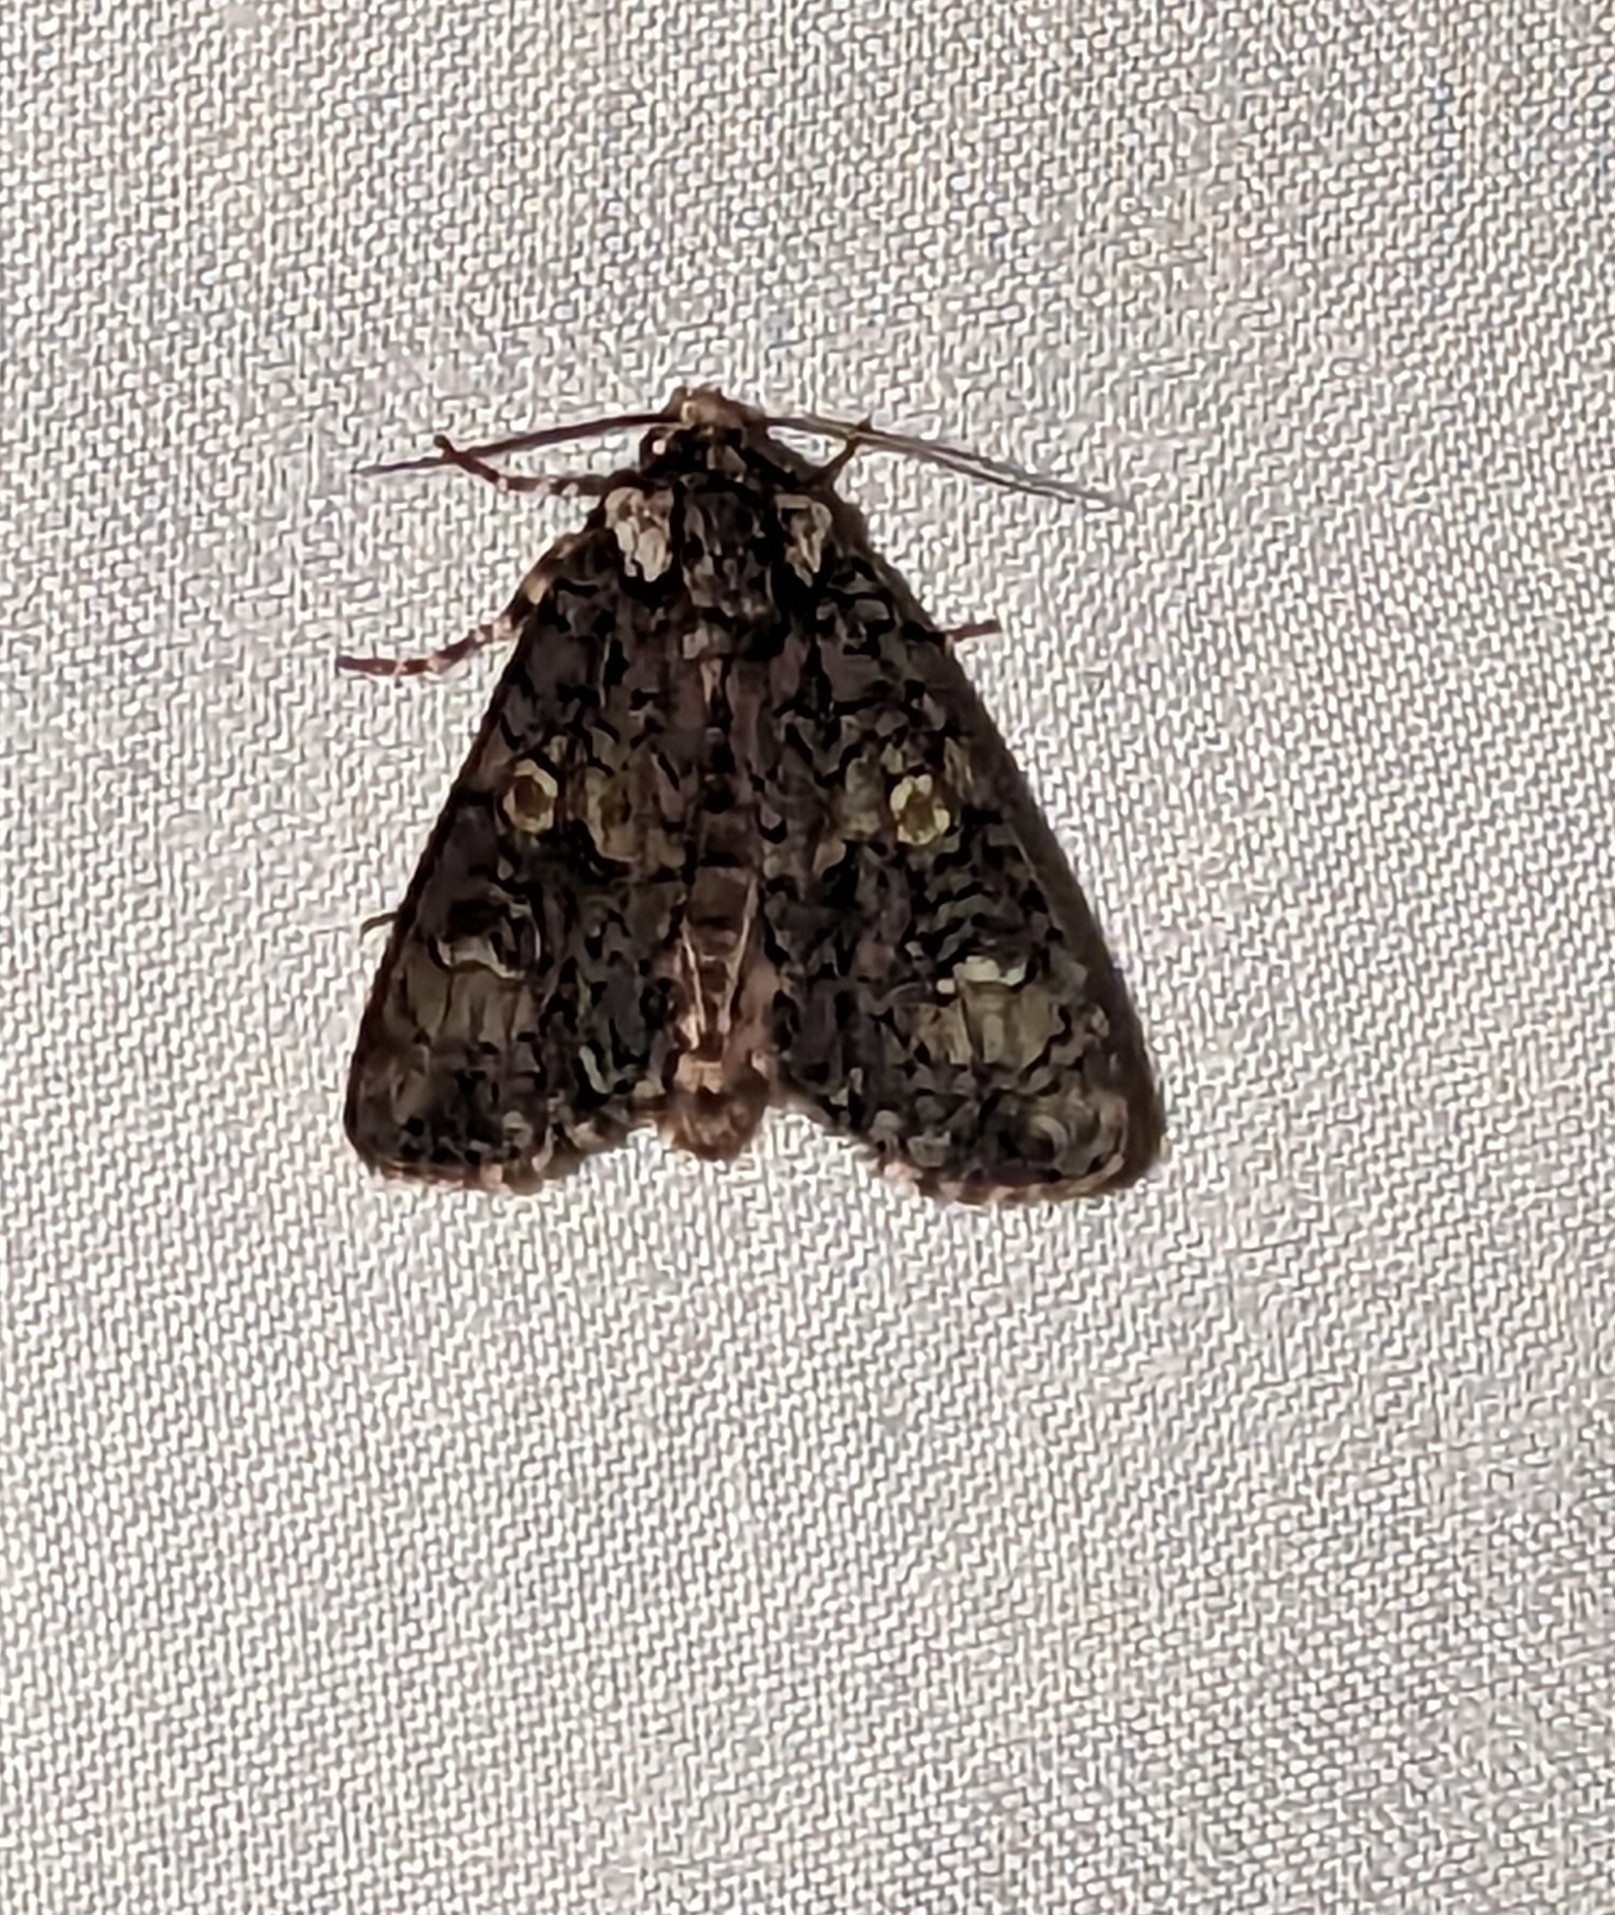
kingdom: Animalia
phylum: Arthropoda
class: Insecta
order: Lepidoptera
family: Noctuidae
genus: Craniophora
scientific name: Craniophora ligustri
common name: Coronet
